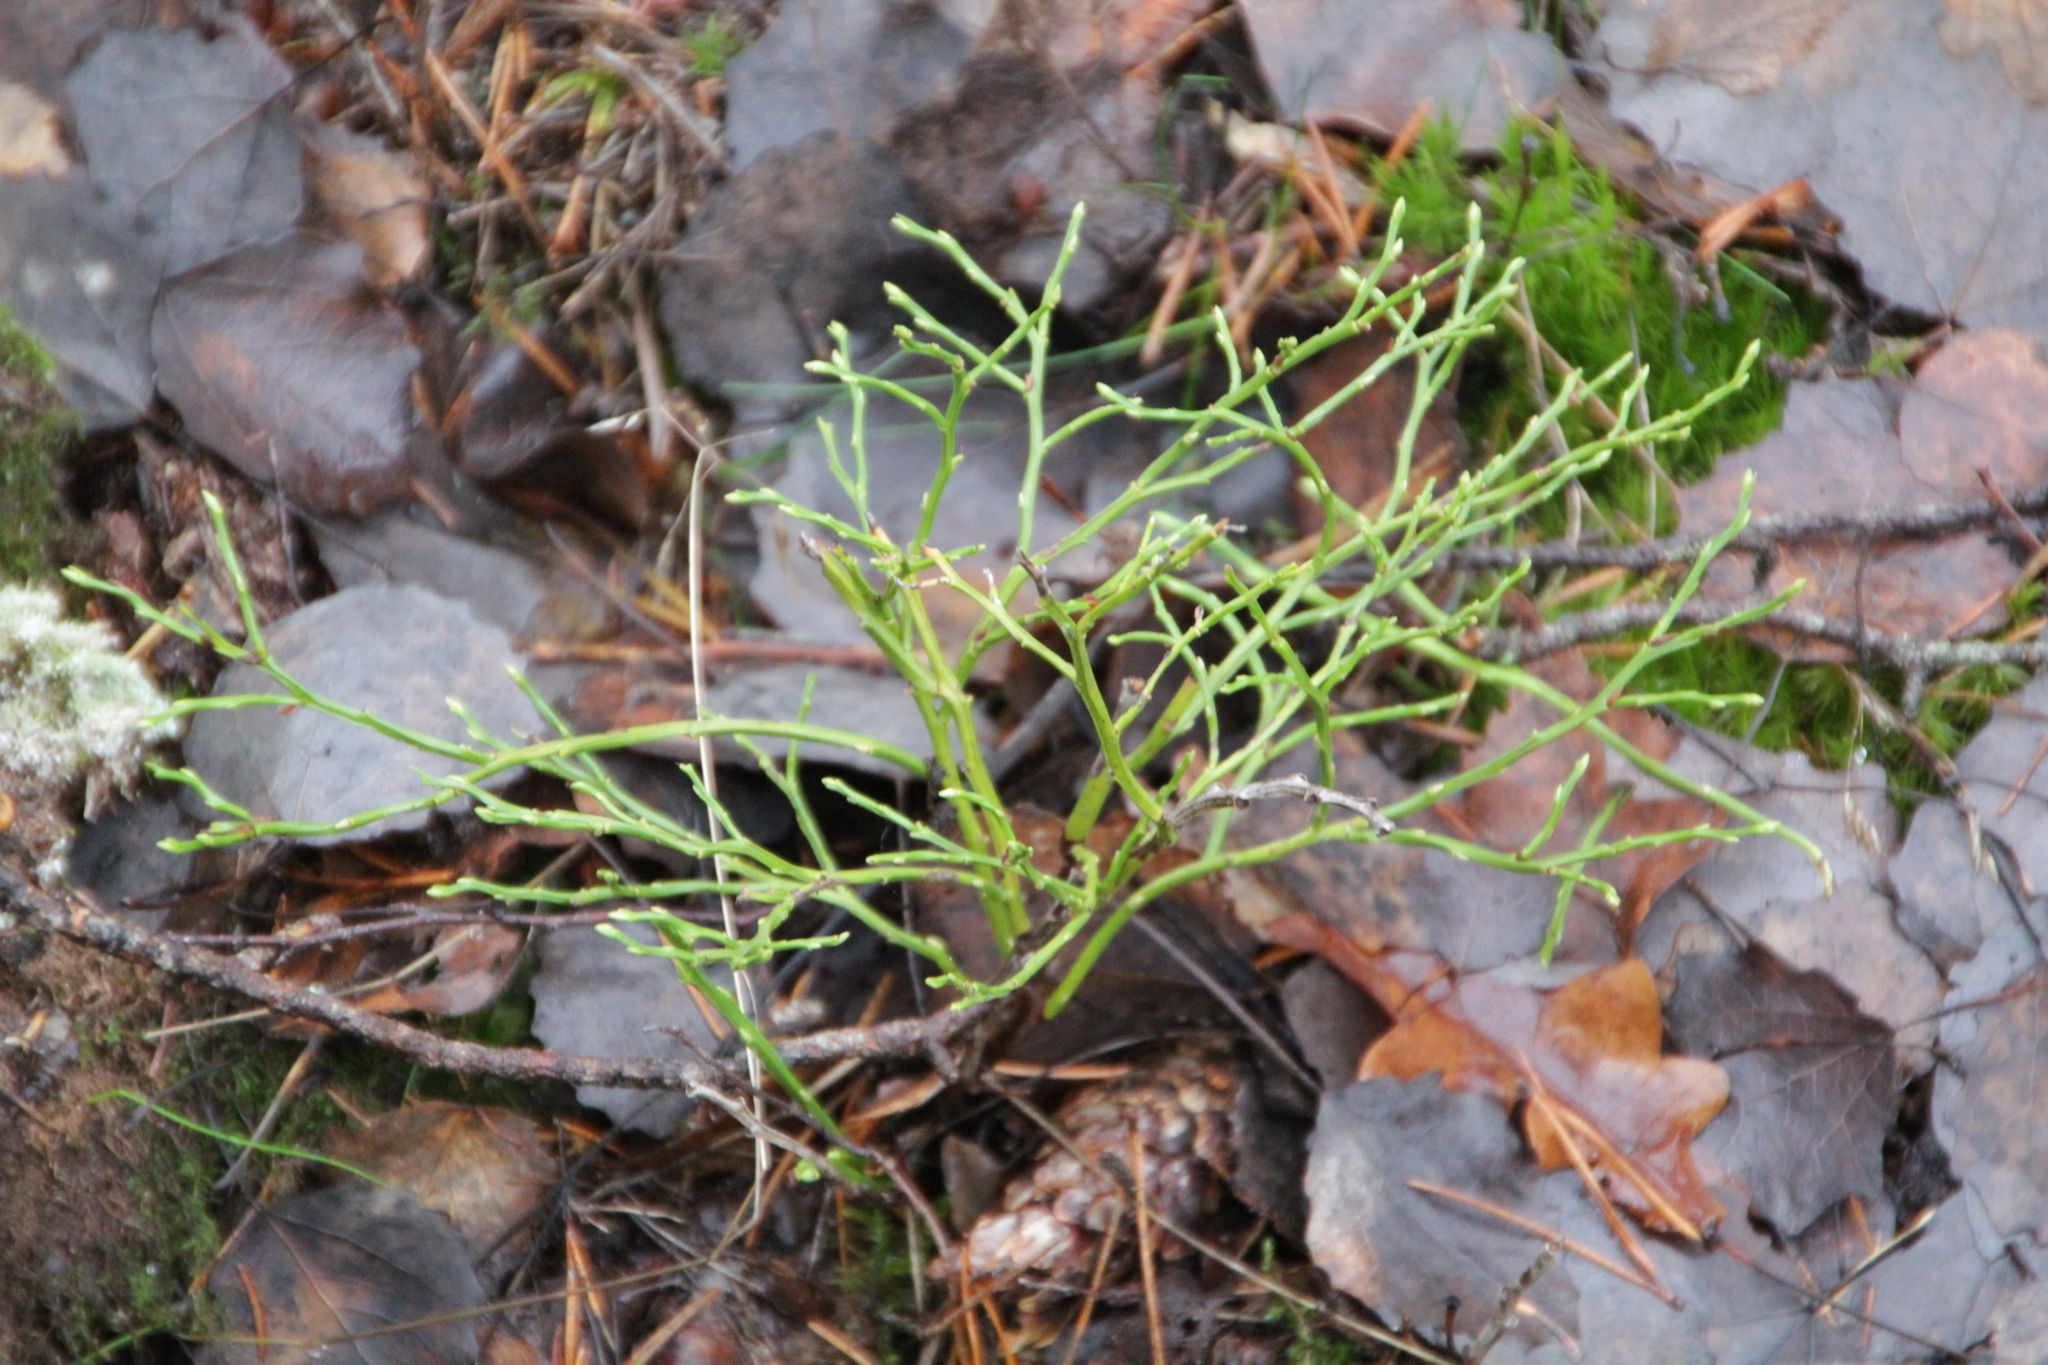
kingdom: Plantae
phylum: Tracheophyta
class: Magnoliopsida
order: Ericales
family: Ericaceae
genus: Vaccinium
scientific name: Vaccinium myrtillus
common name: Bilberry
